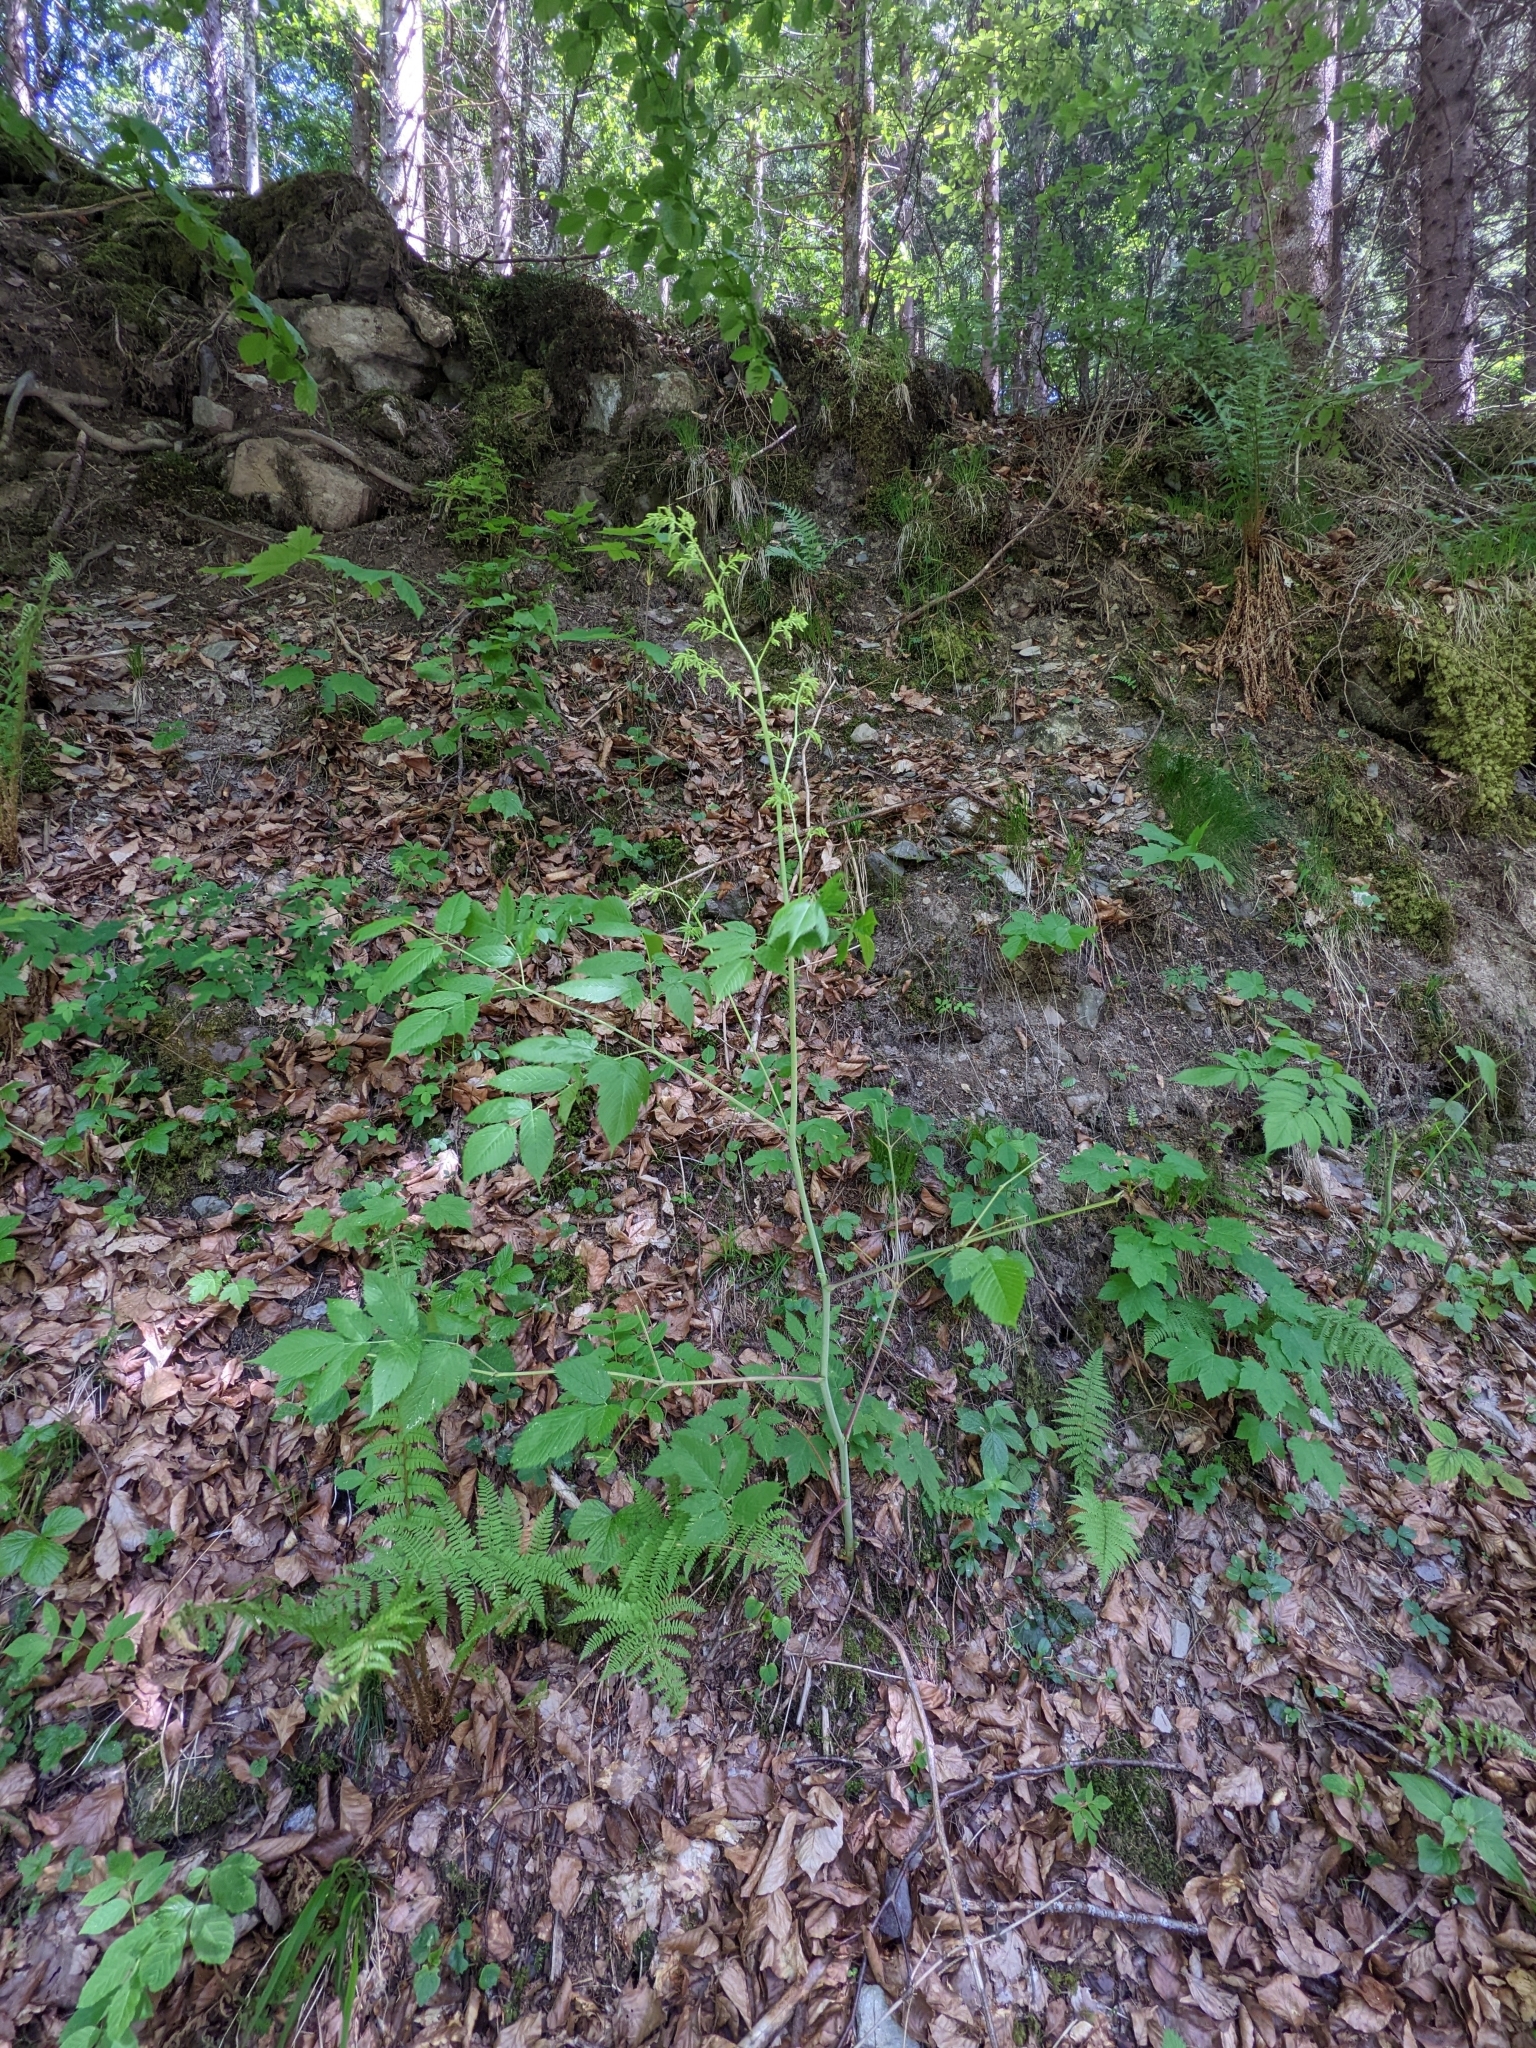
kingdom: Plantae
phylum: Tracheophyta
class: Magnoliopsida
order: Rosales
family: Rosaceae
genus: Aruncus
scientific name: Aruncus dioicus
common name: Buck's-beard
